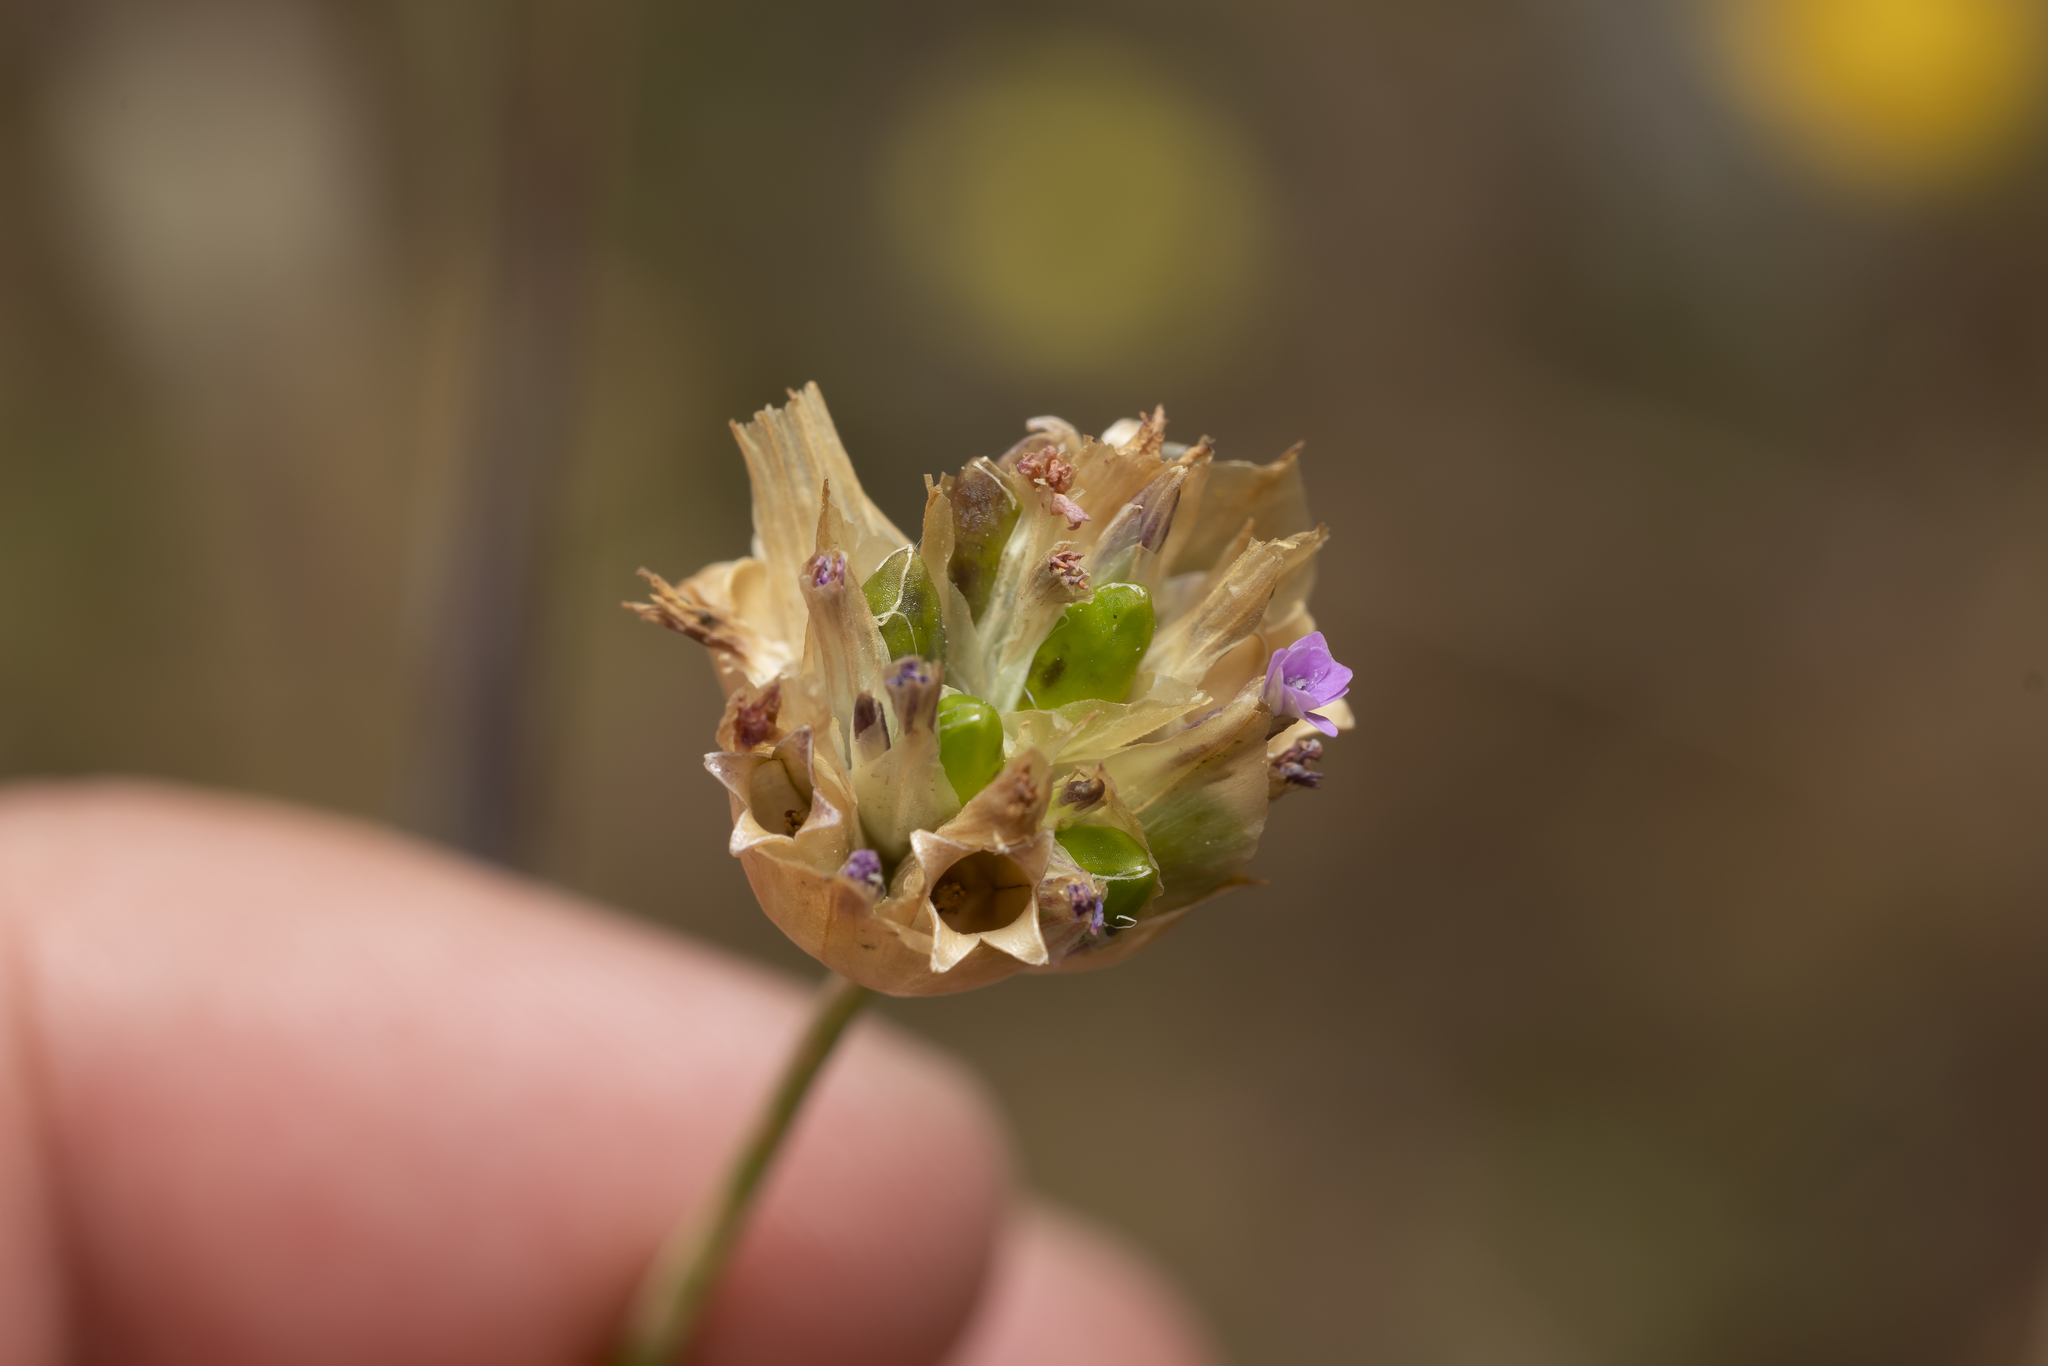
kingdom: Plantae
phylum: Tracheophyta
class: Magnoliopsida
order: Caryophyllales
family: Caryophyllaceae
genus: Petrorhagia
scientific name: Petrorhagia dubia
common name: Hairypink
